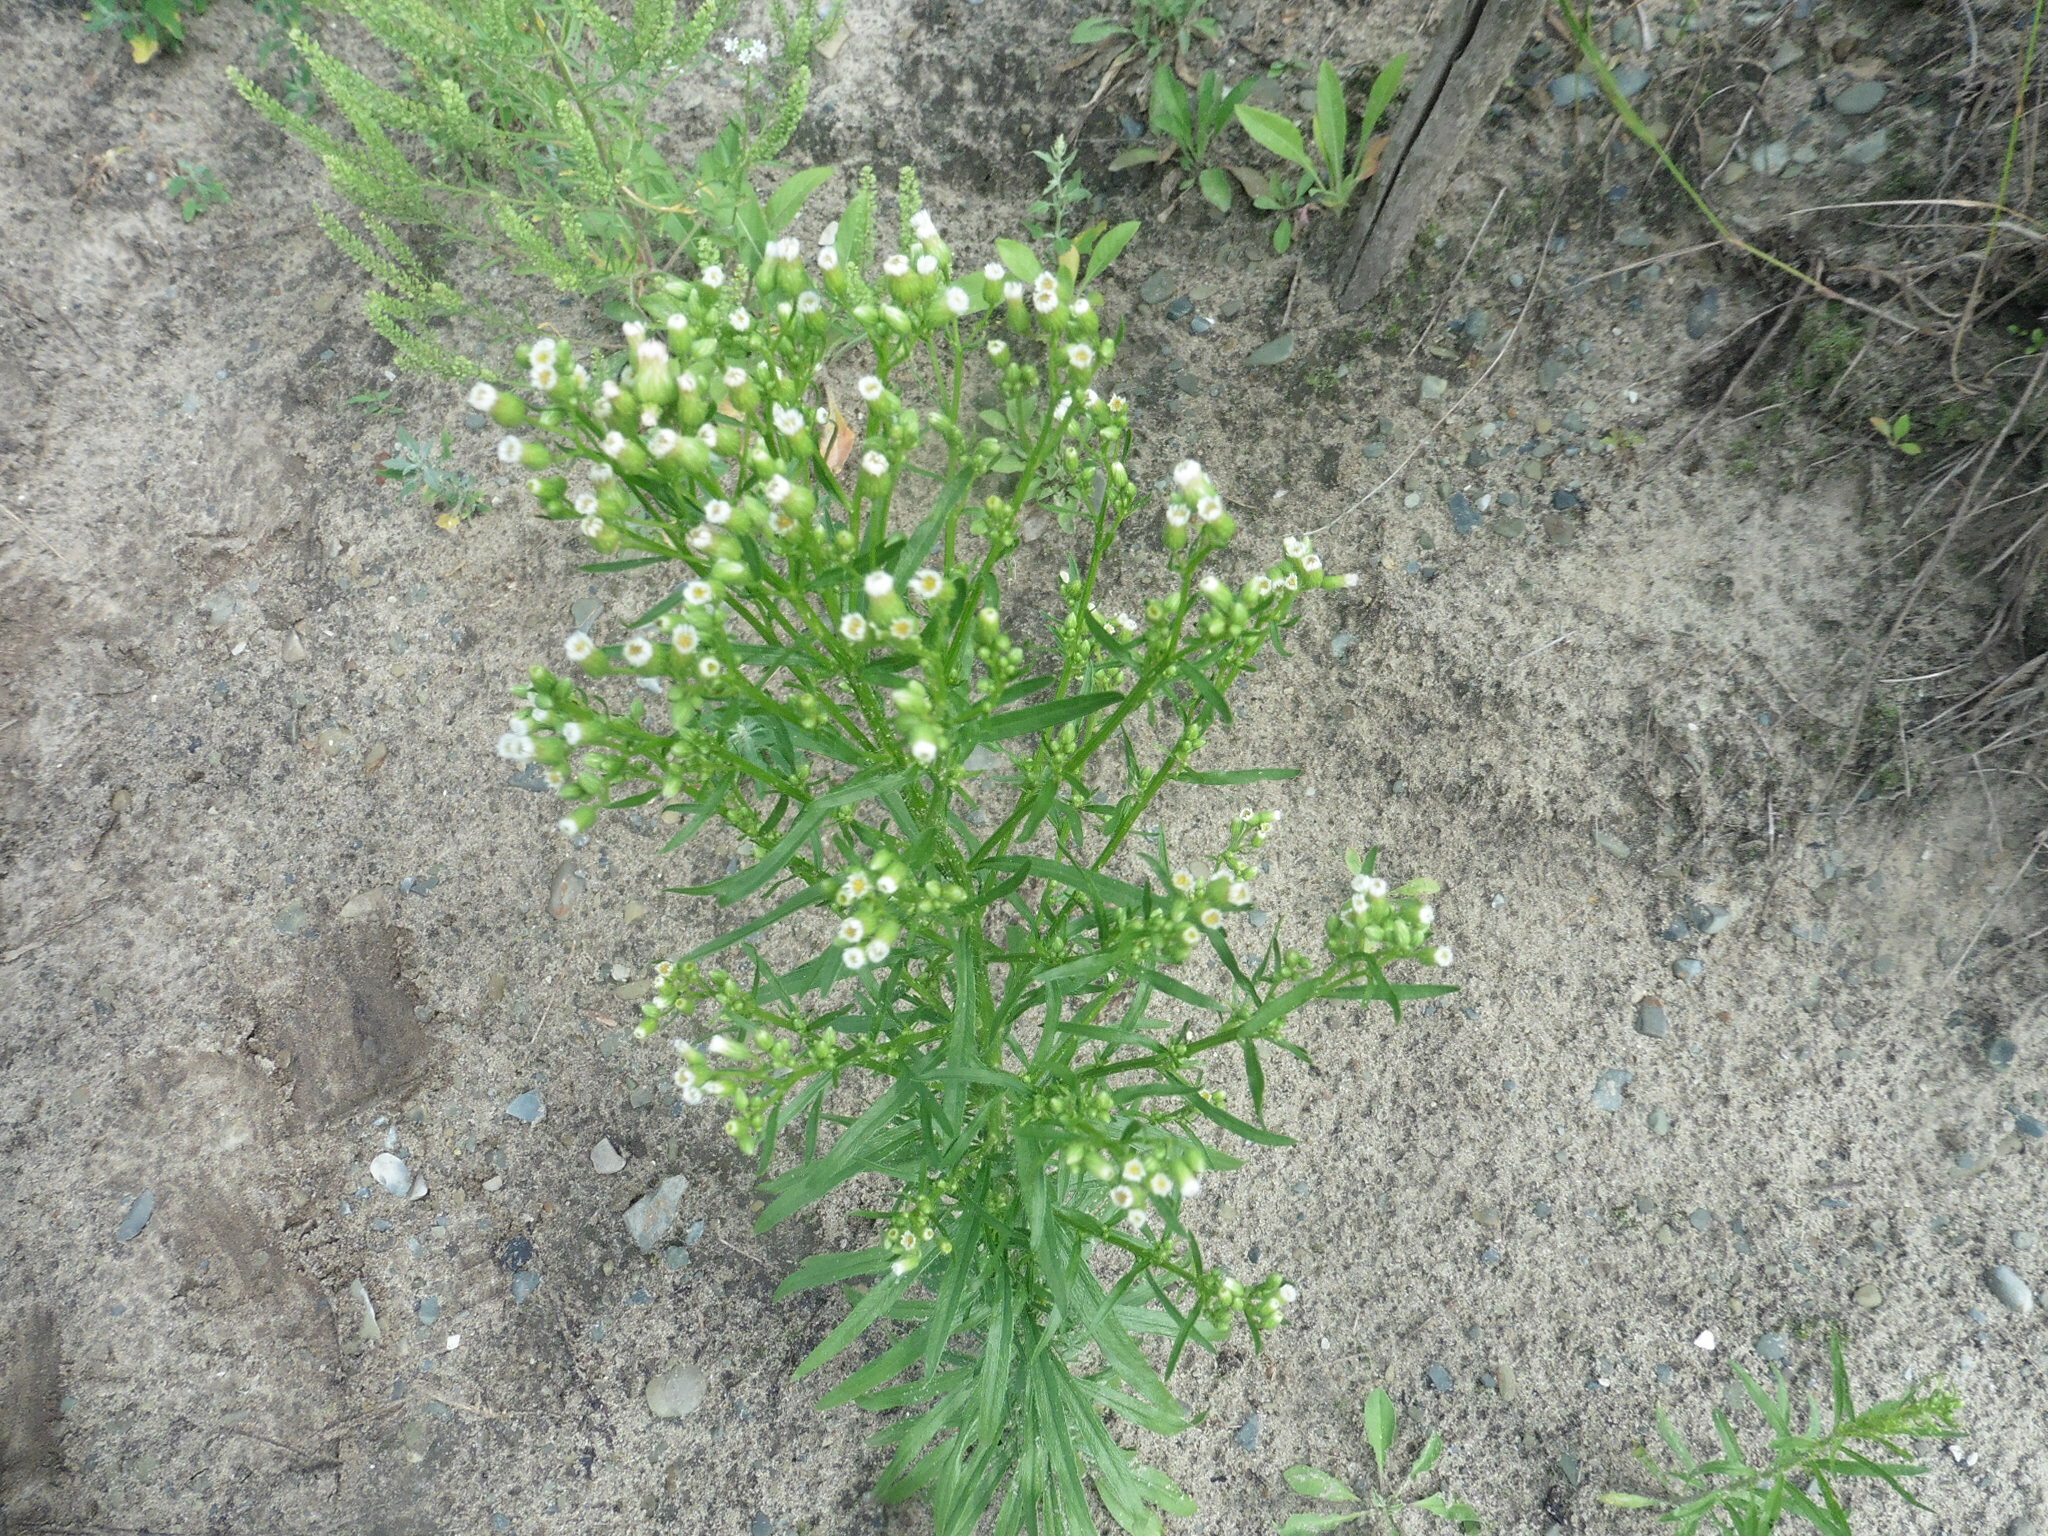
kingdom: Plantae
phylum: Tracheophyta
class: Magnoliopsida
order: Asterales
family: Asteraceae
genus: Erigeron
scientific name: Erigeron canadensis
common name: Canadian fleabane
